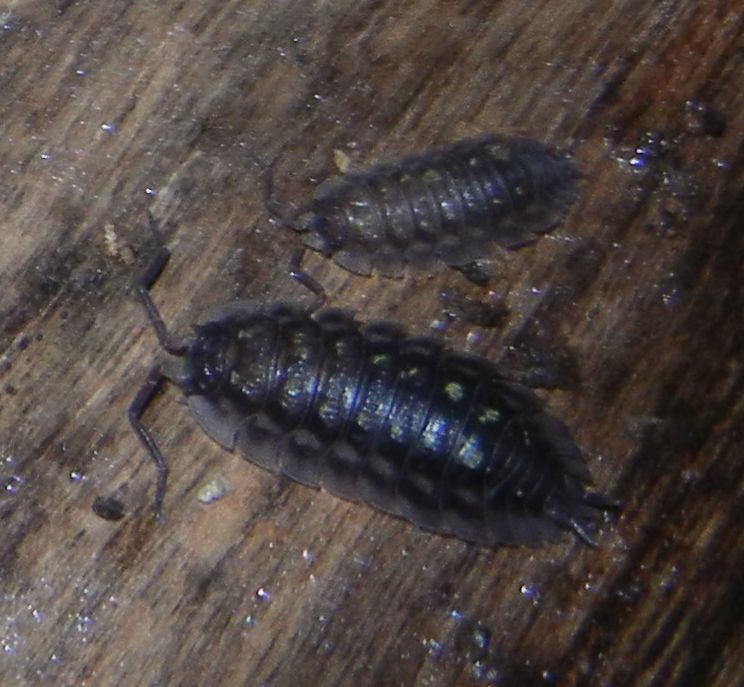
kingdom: Animalia
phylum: Arthropoda
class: Malacostraca
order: Isopoda
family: Oniscidae
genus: Oniscus
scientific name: Oniscus asellus
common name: Common shiny woodlouse
